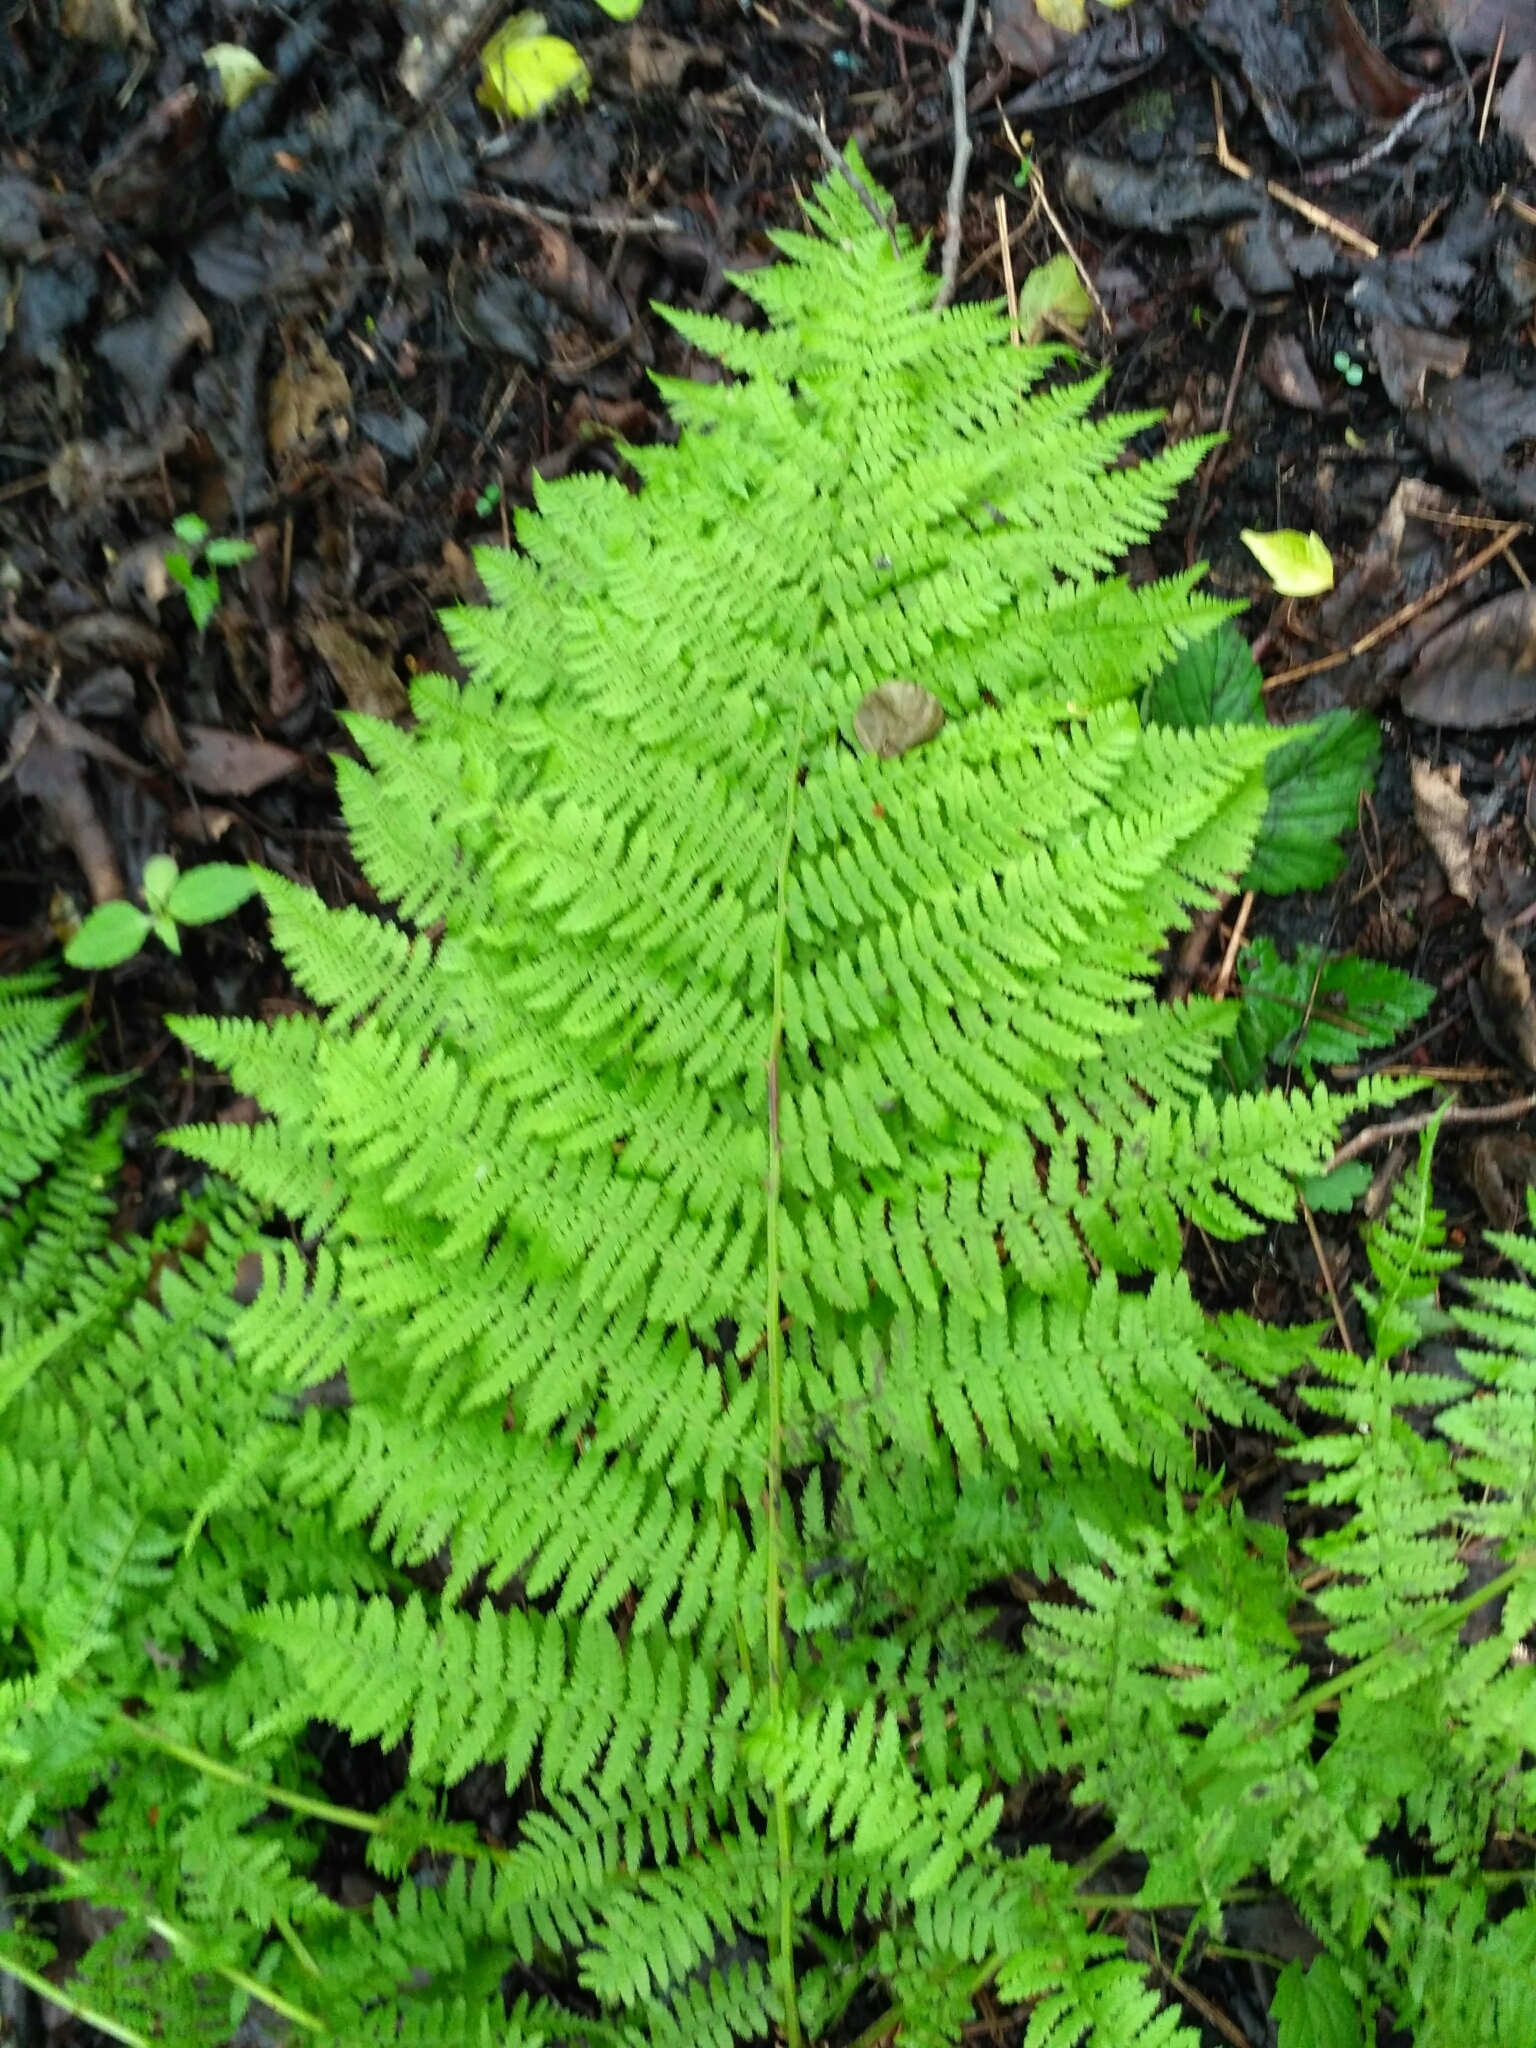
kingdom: Plantae
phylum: Tracheophyta
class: Polypodiopsida
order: Polypodiales
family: Athyriaceae
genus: Athyrium
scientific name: Athyrium filix-femina
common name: Lady fern
